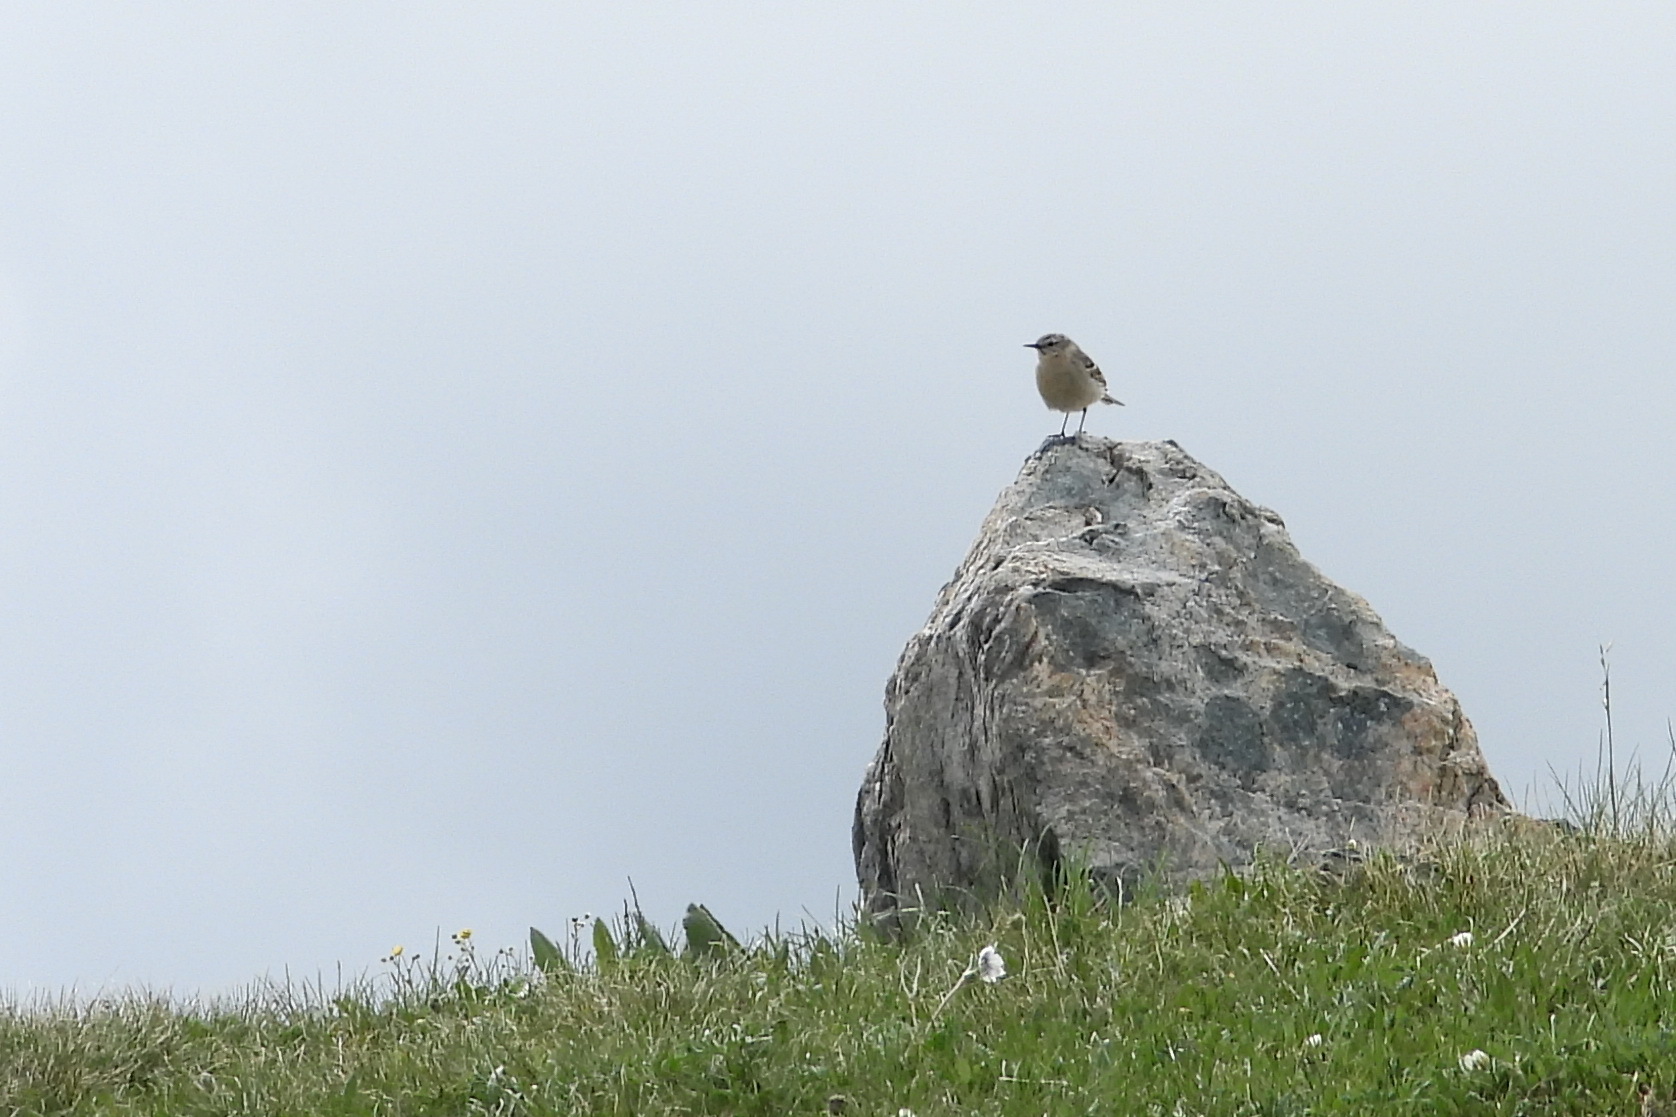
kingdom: Animalia
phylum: Chordata
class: Aves
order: Passeriformes
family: Motacillidae
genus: Anthus
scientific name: Anthus spinoletta
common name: Water pipit
